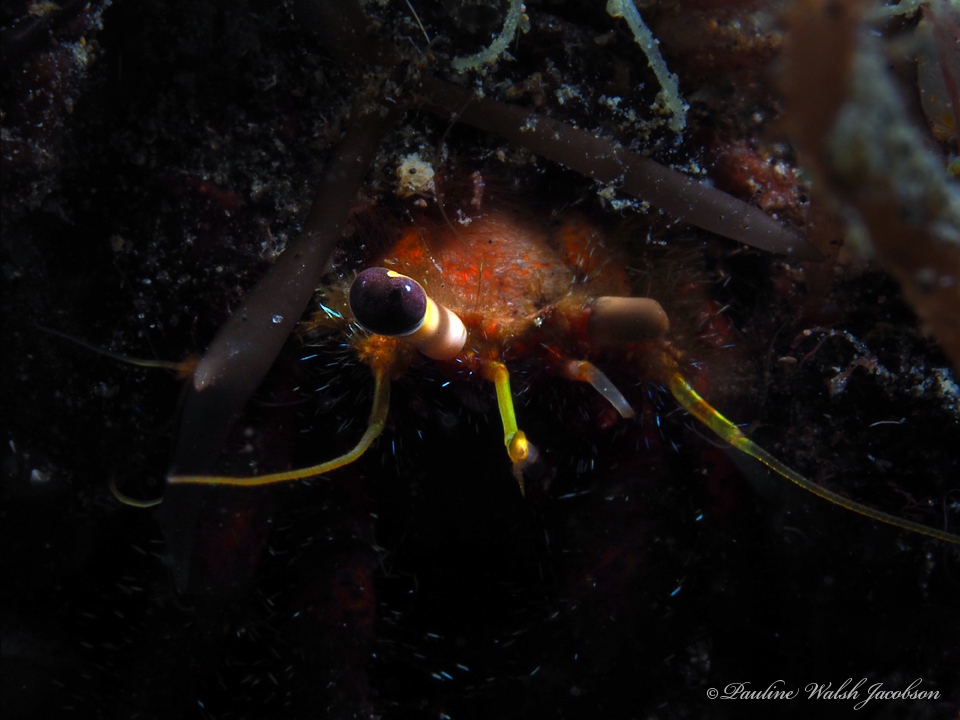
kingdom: Animalia
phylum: Arthropoda
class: Malacostraca
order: Decapoda
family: Diogenidae
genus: Dardanus
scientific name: Dardanus sanguinolentus
